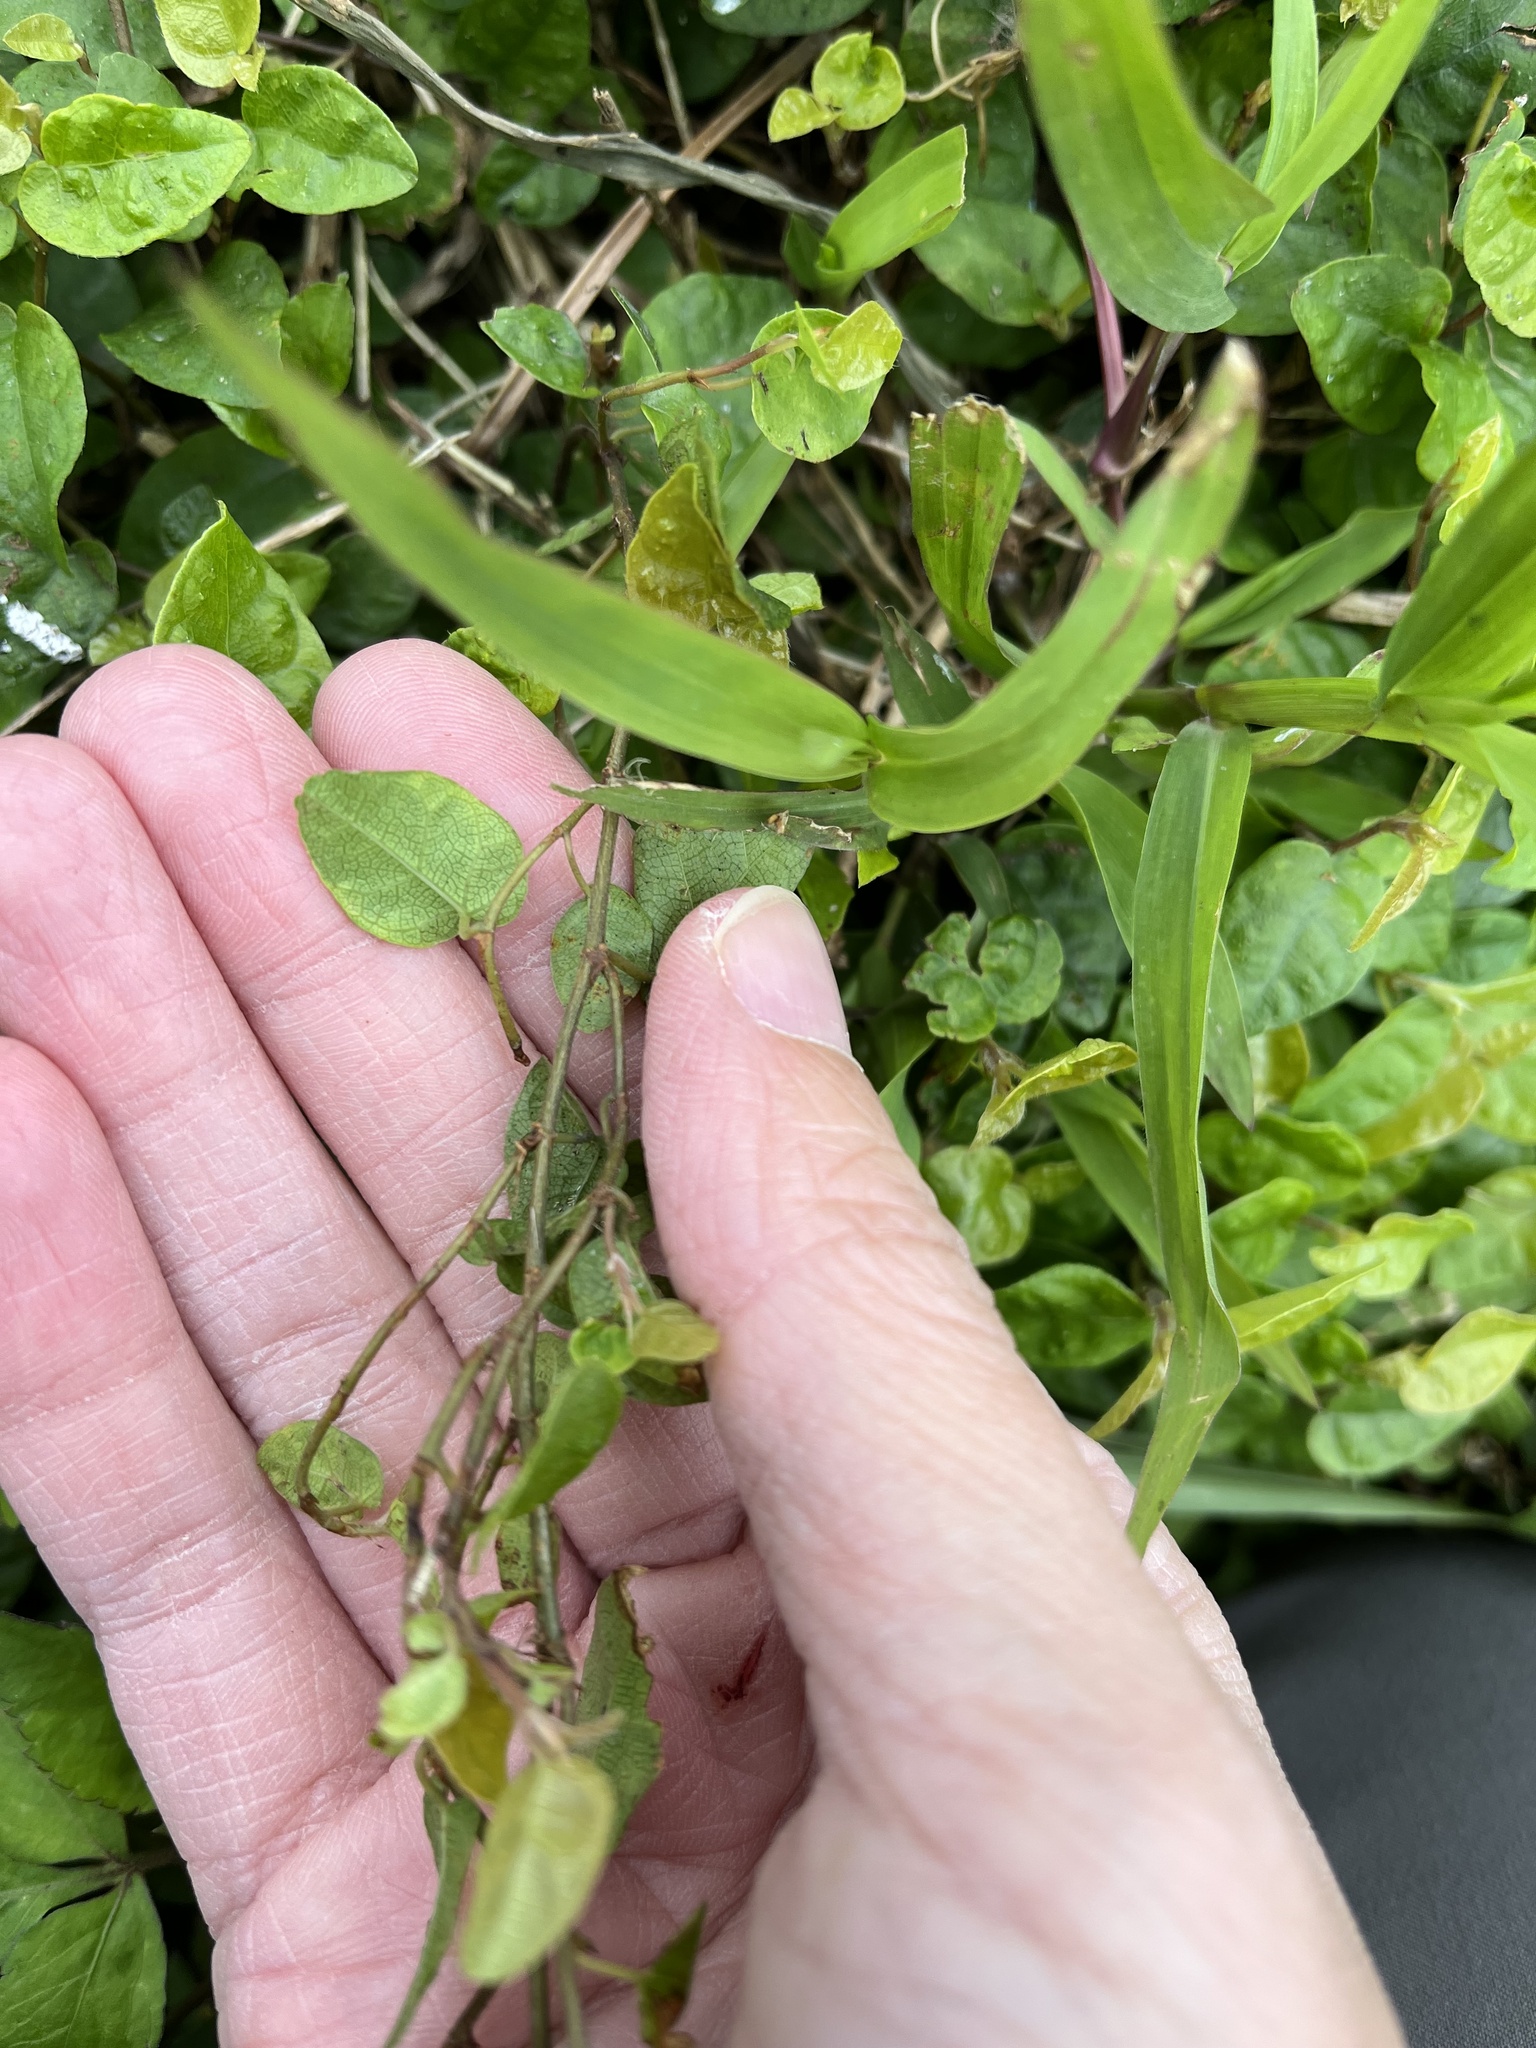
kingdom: Plantae
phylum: Tracheophyta
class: Magnoliopsida
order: Rosales
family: Moraceae
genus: Ficus
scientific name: Ficus pumila
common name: Climbingfig
